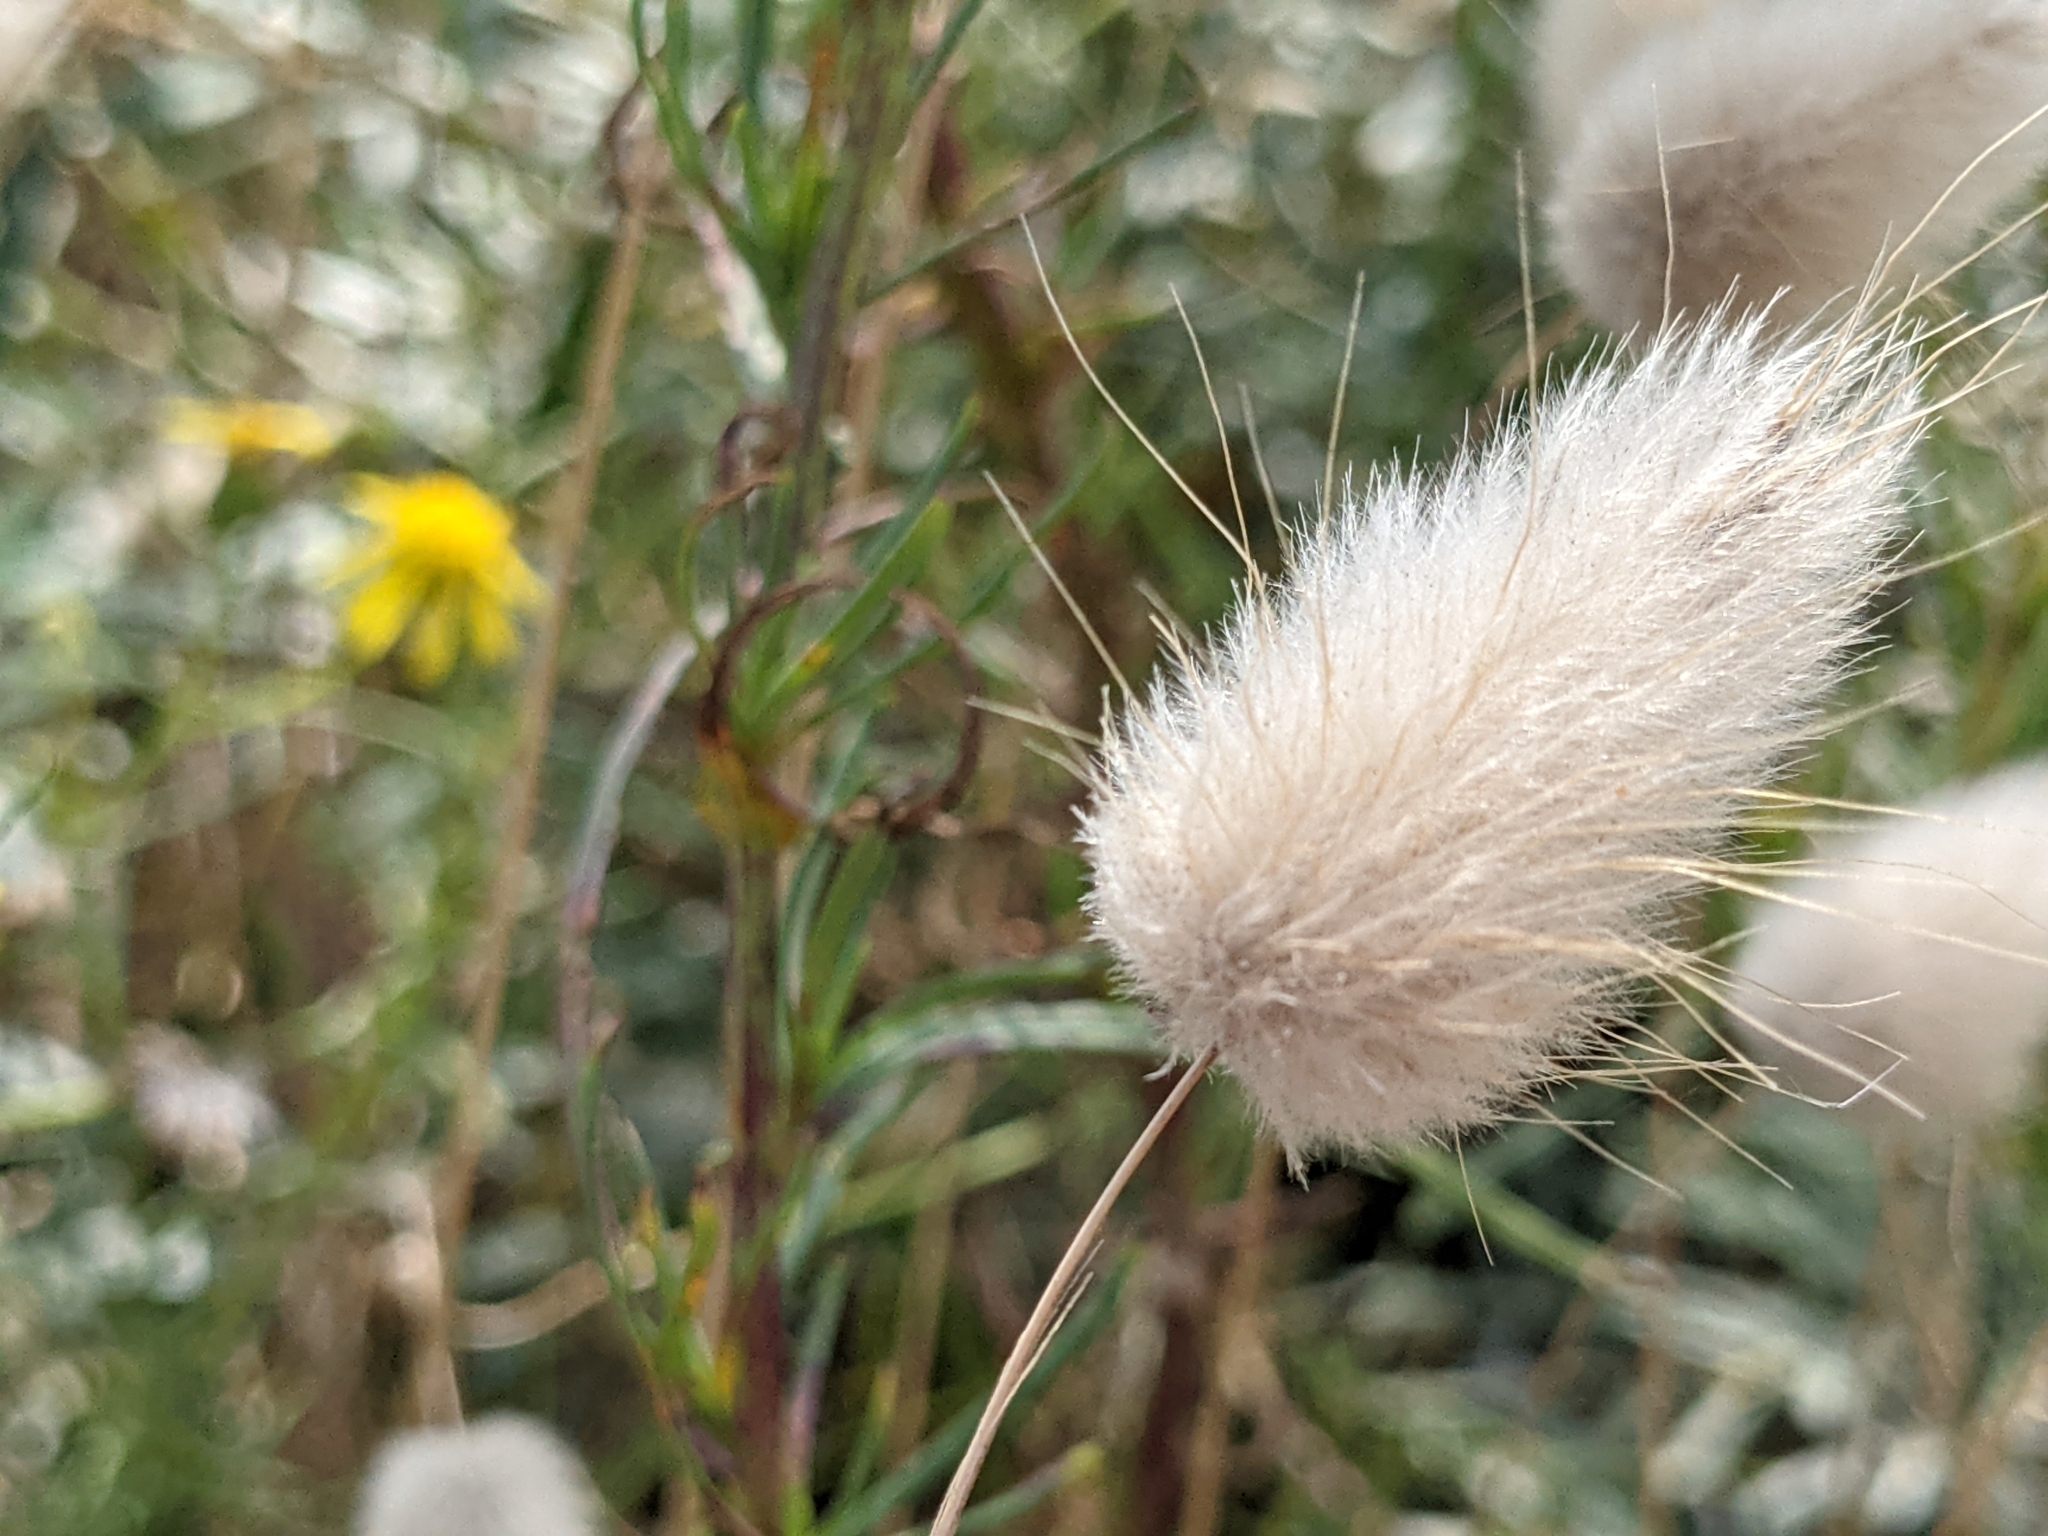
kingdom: Plantae
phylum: Tracheophyta
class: Liliopsida
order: Poales
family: Poaceae
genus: Lagurus
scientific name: Lagurus ovatus
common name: Hare's-tail
